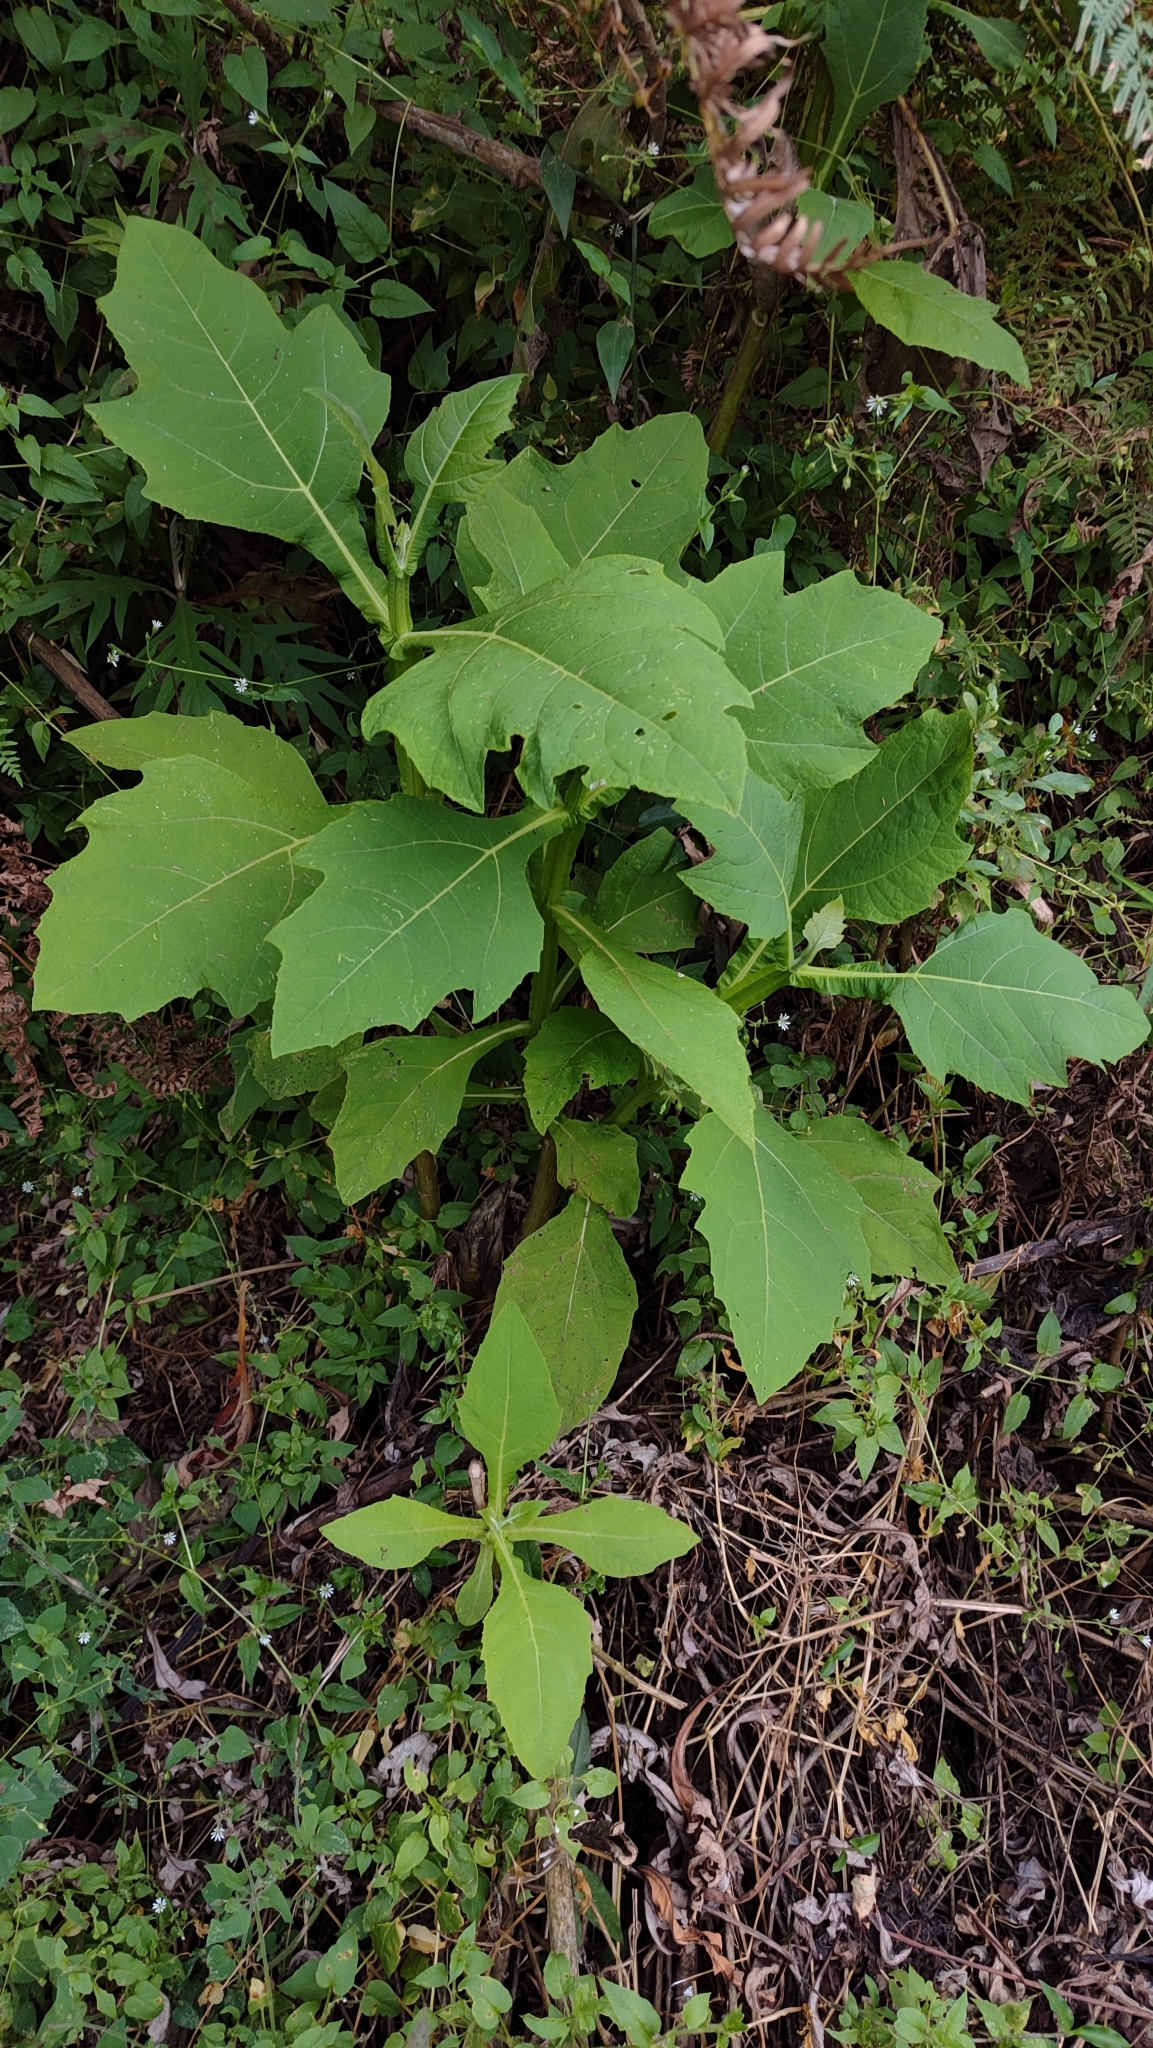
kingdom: Plantae
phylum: Tracheophyta
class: Magnoliopsida
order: Asterales
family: Asteraceae
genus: Verbesina
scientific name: Verbesina fastigiata
